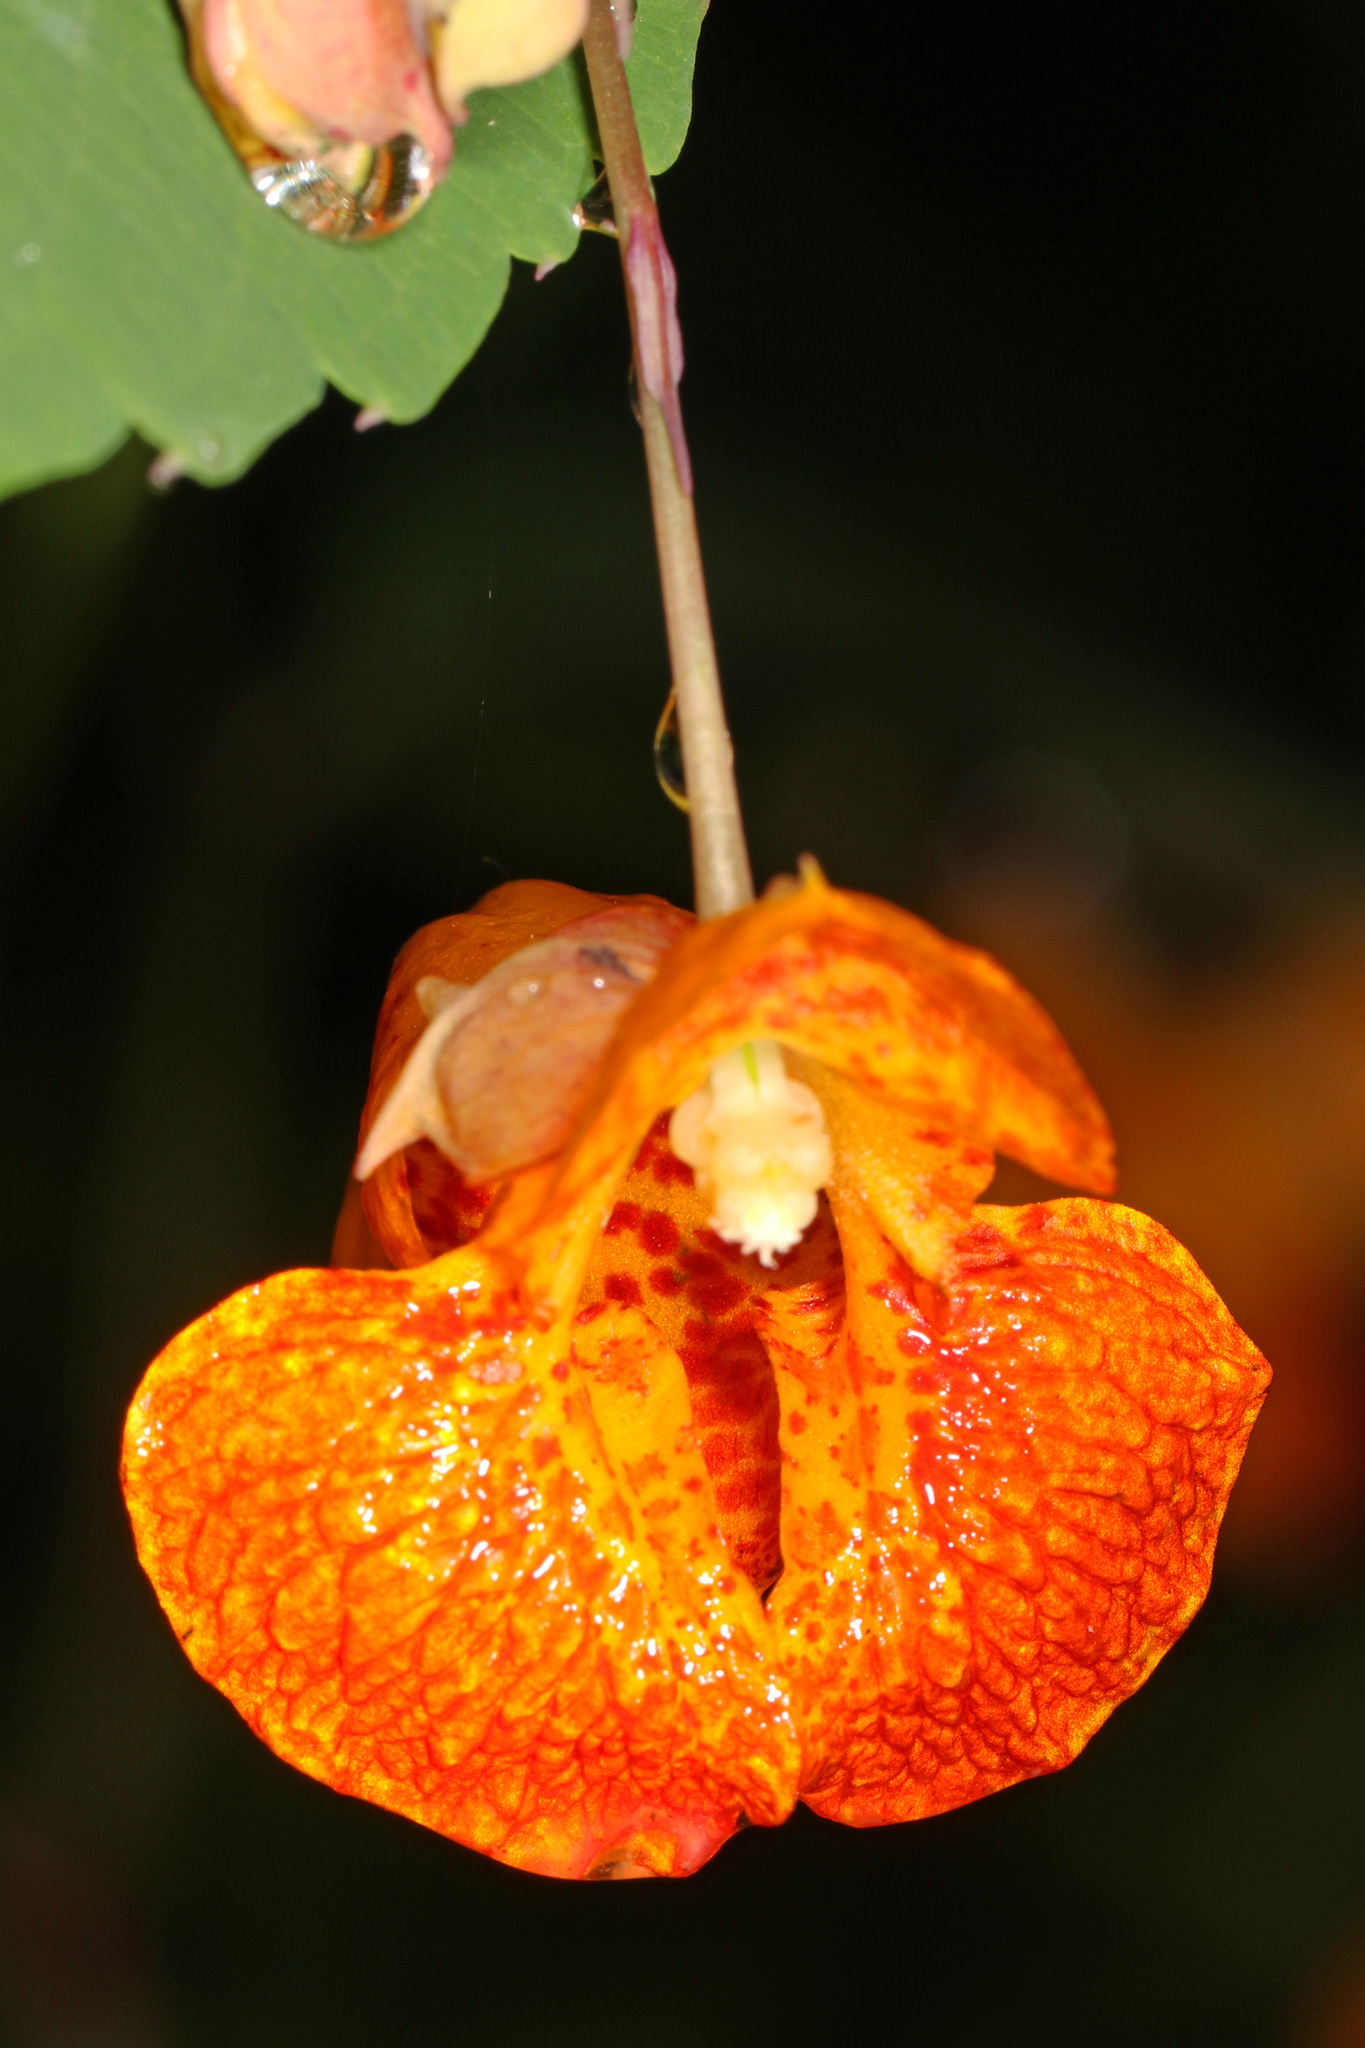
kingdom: Plantae
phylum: Tracheophyta
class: Magnoliopsida
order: Ericales
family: Balsaminaceae
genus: Impatiens
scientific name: Impatiens capensis
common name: Orange balsam
